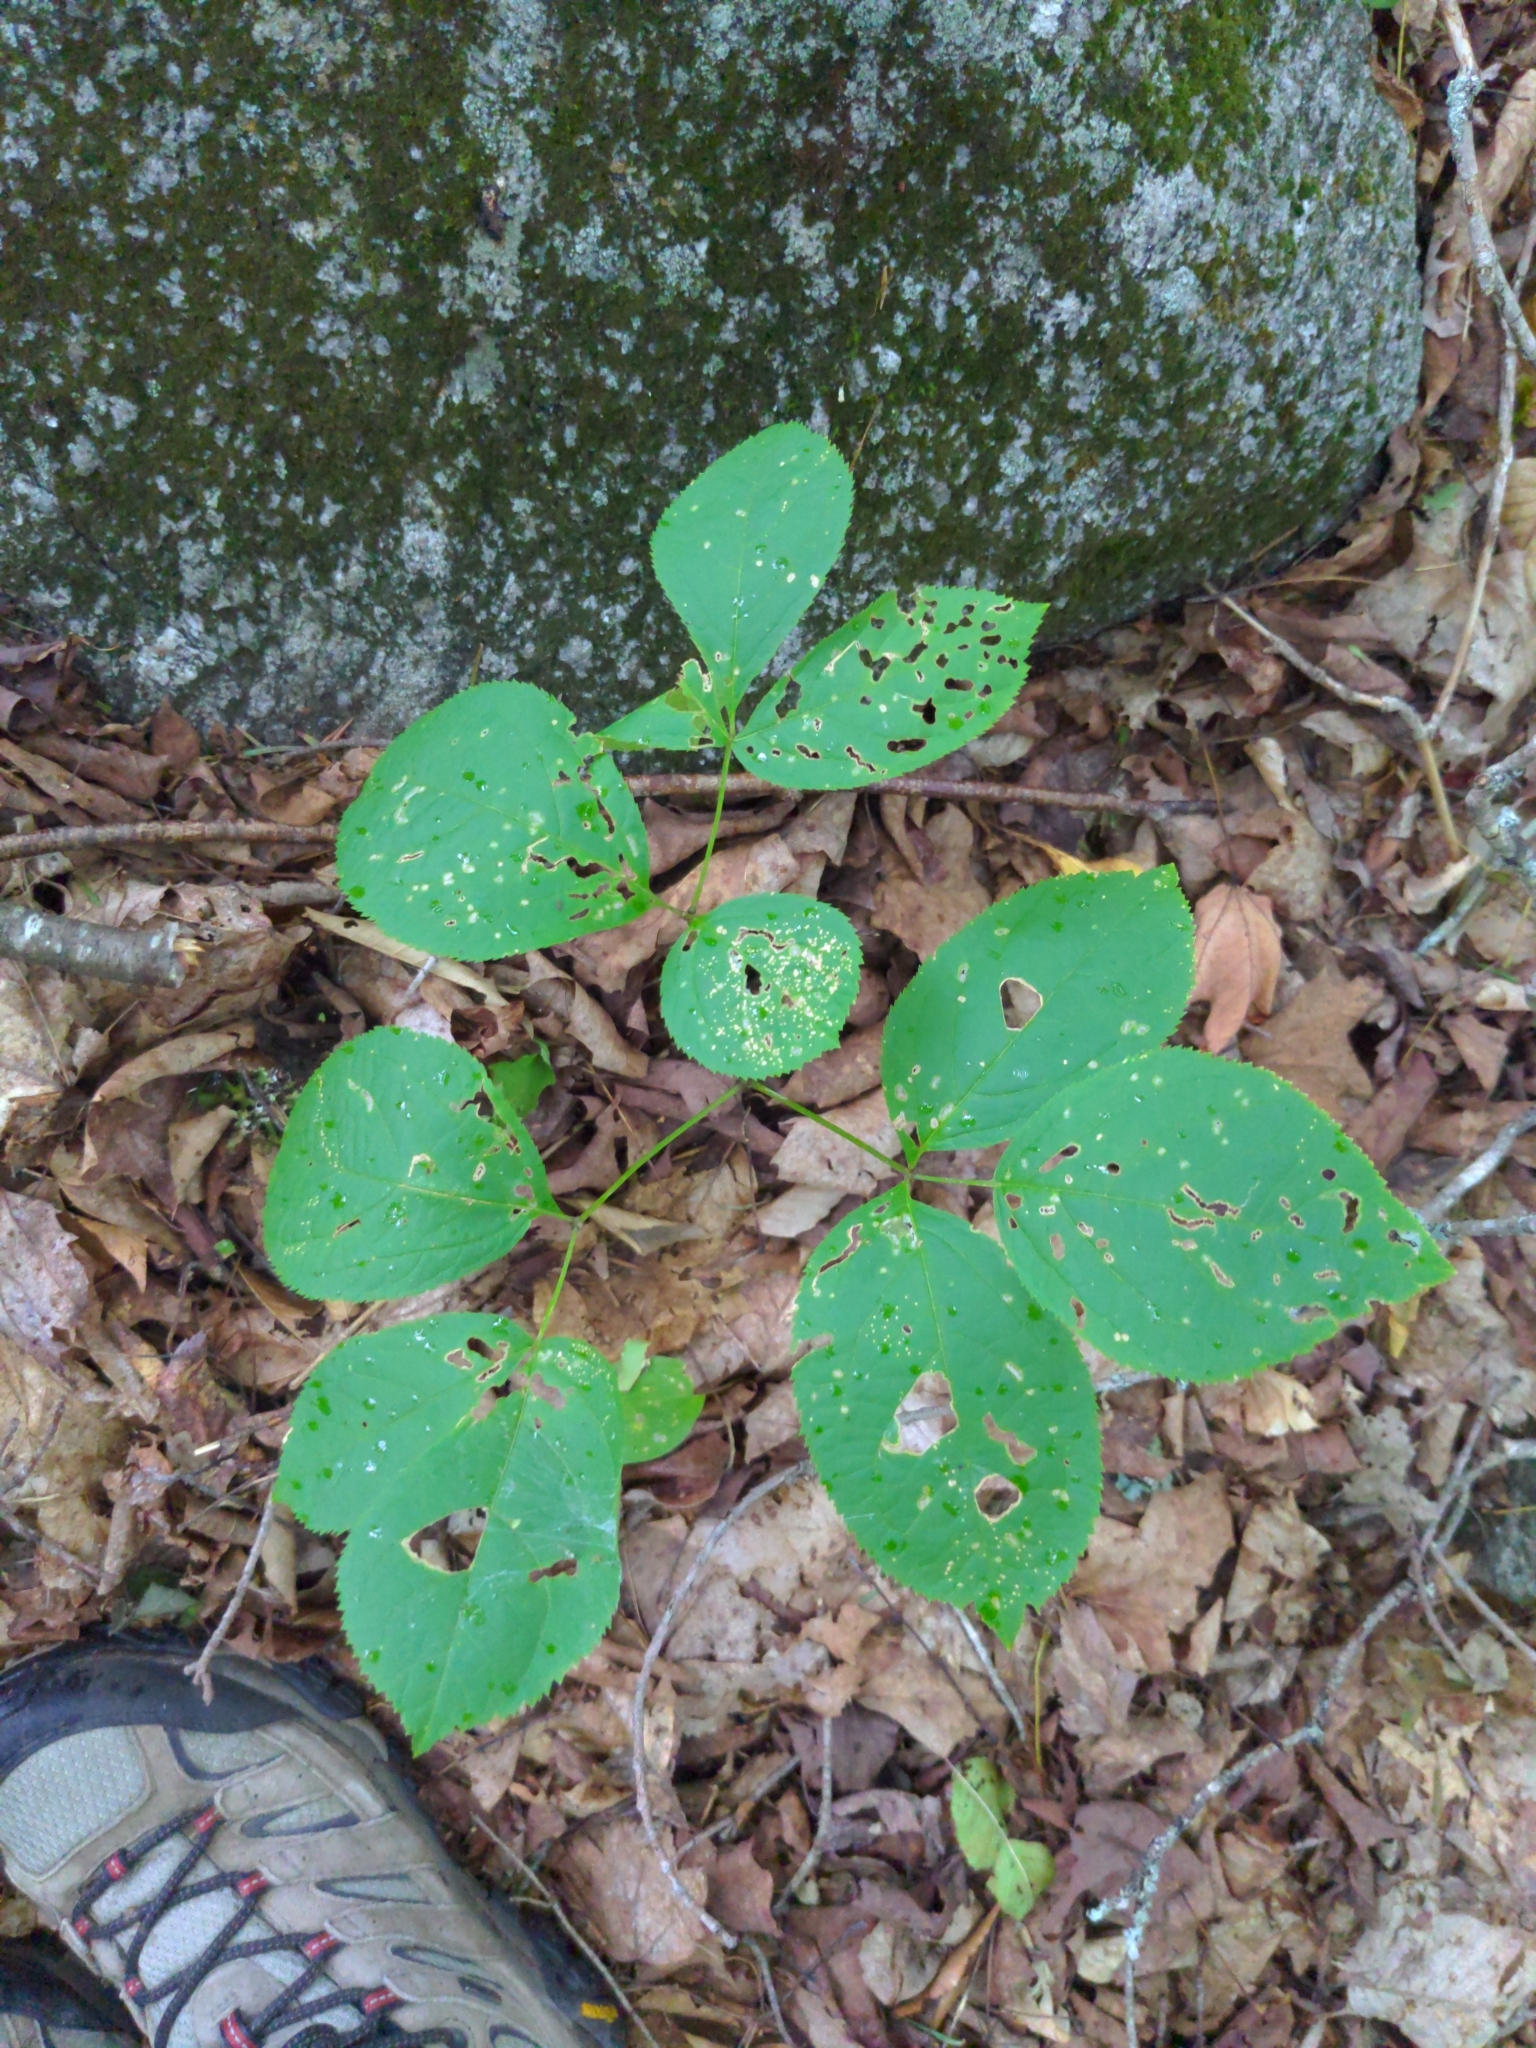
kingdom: Plantae
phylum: Tracheophyta
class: Magnoliopsida
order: Apiales
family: Araliaceae
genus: Aralia
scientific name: Aralia nudicaulis
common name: Wild sarsaparilla
